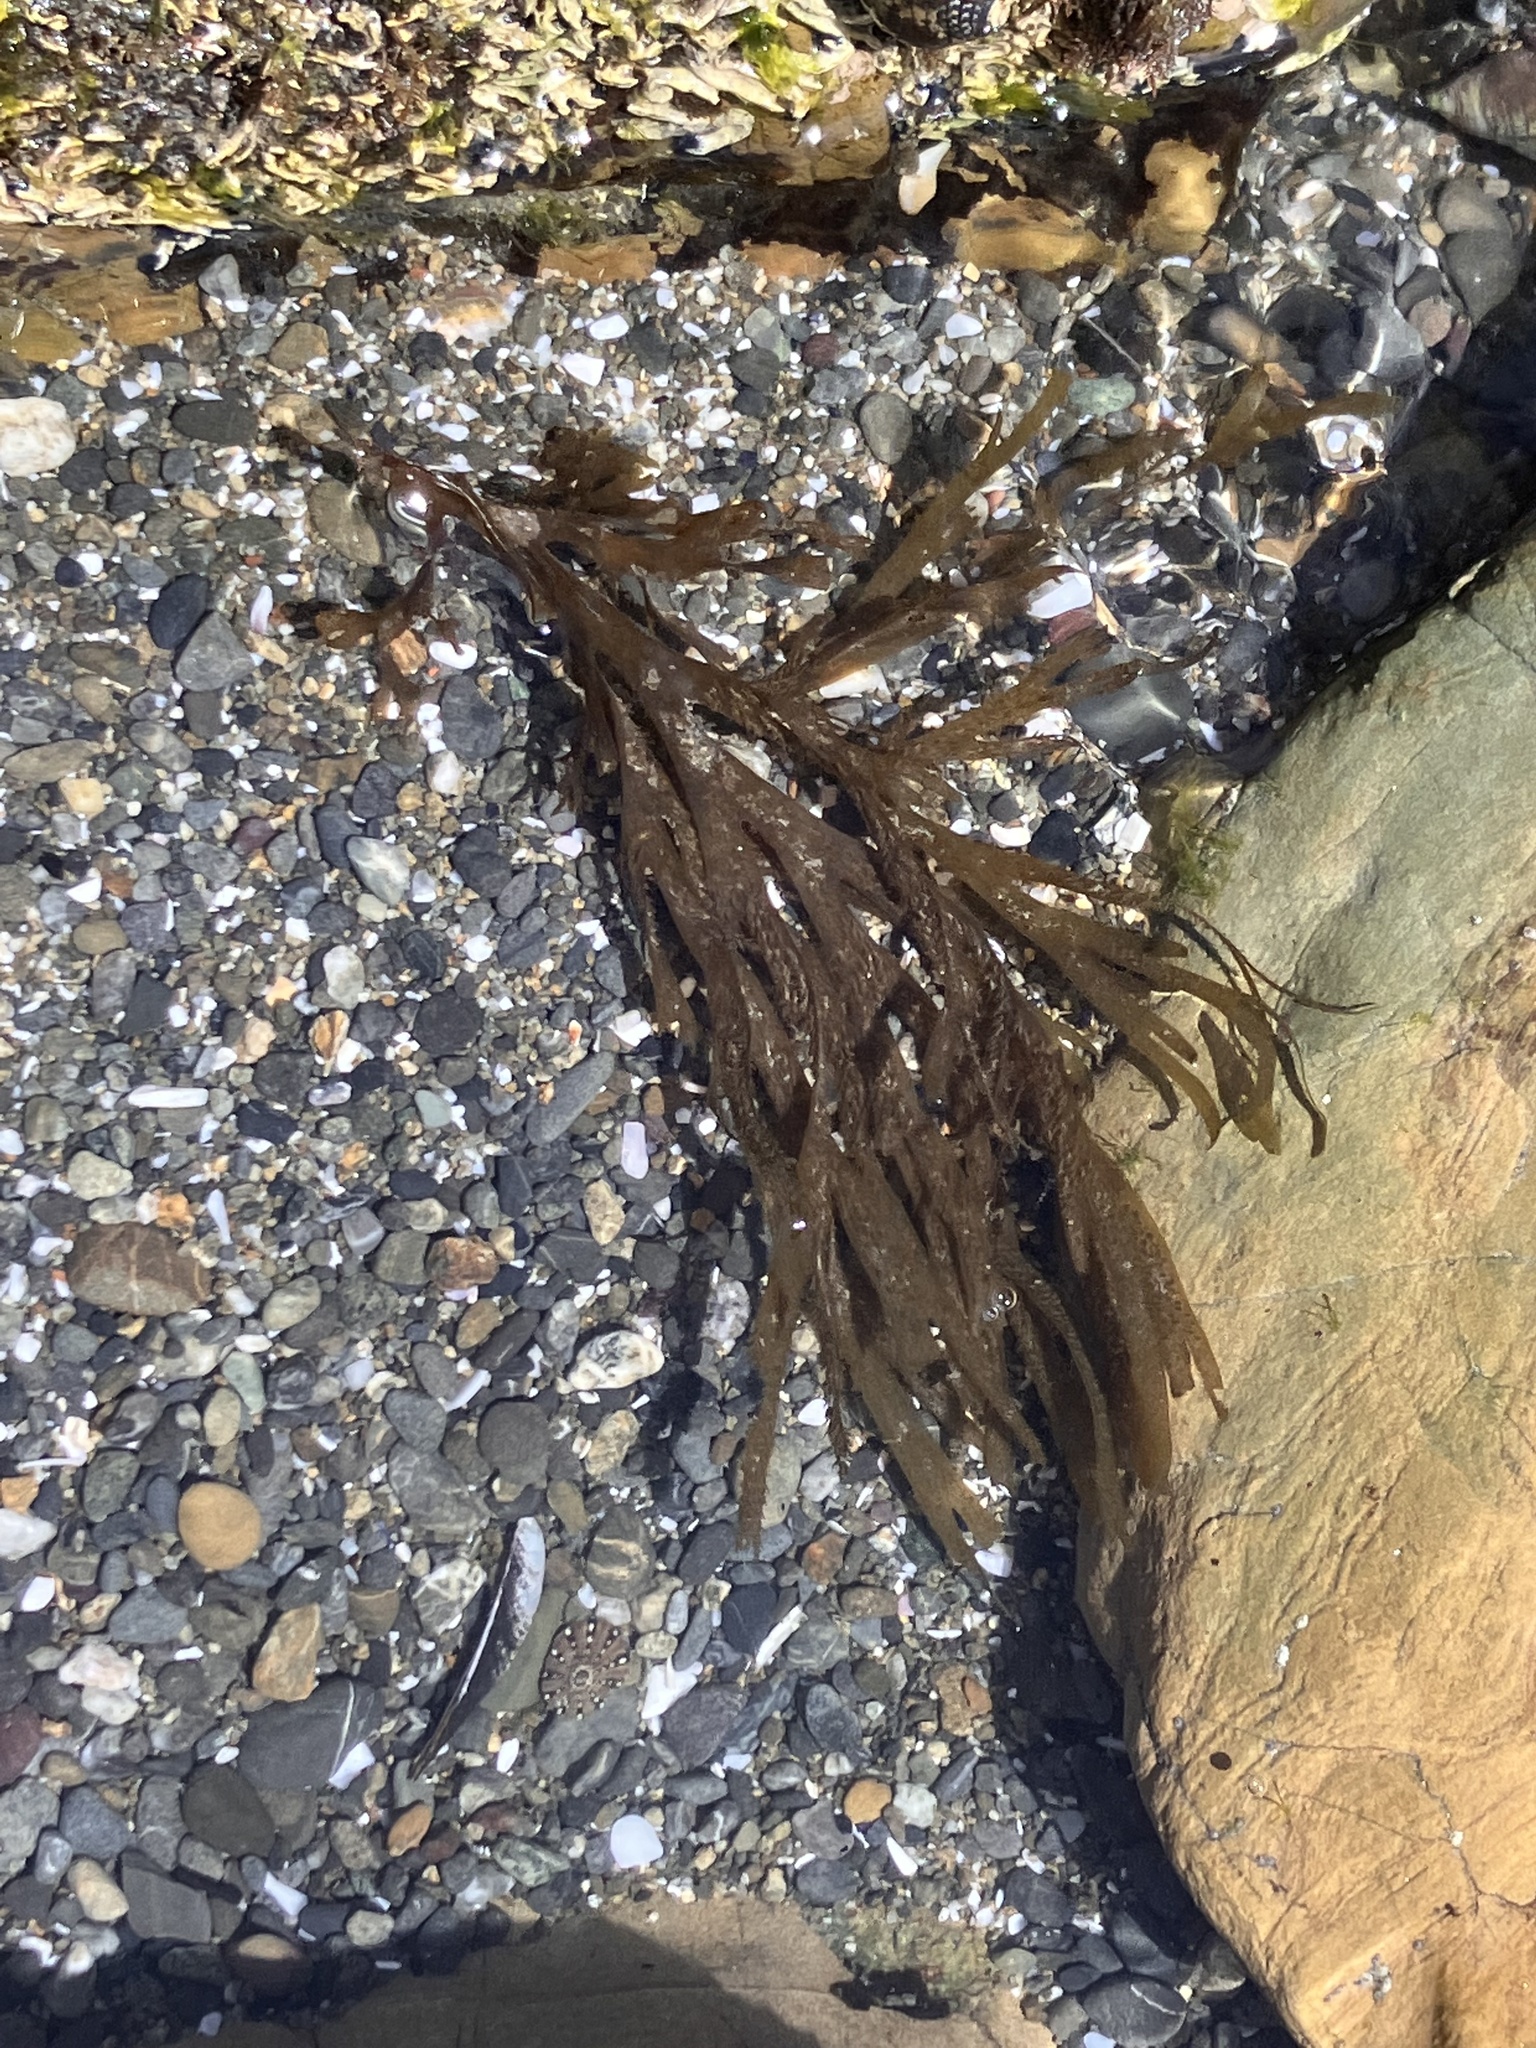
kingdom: Chromista
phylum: Ochrophyta
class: Phaeophyceae
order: Dictyotales
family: Dictyotaceae
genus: Dictyota
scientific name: Dictyota kunthii
